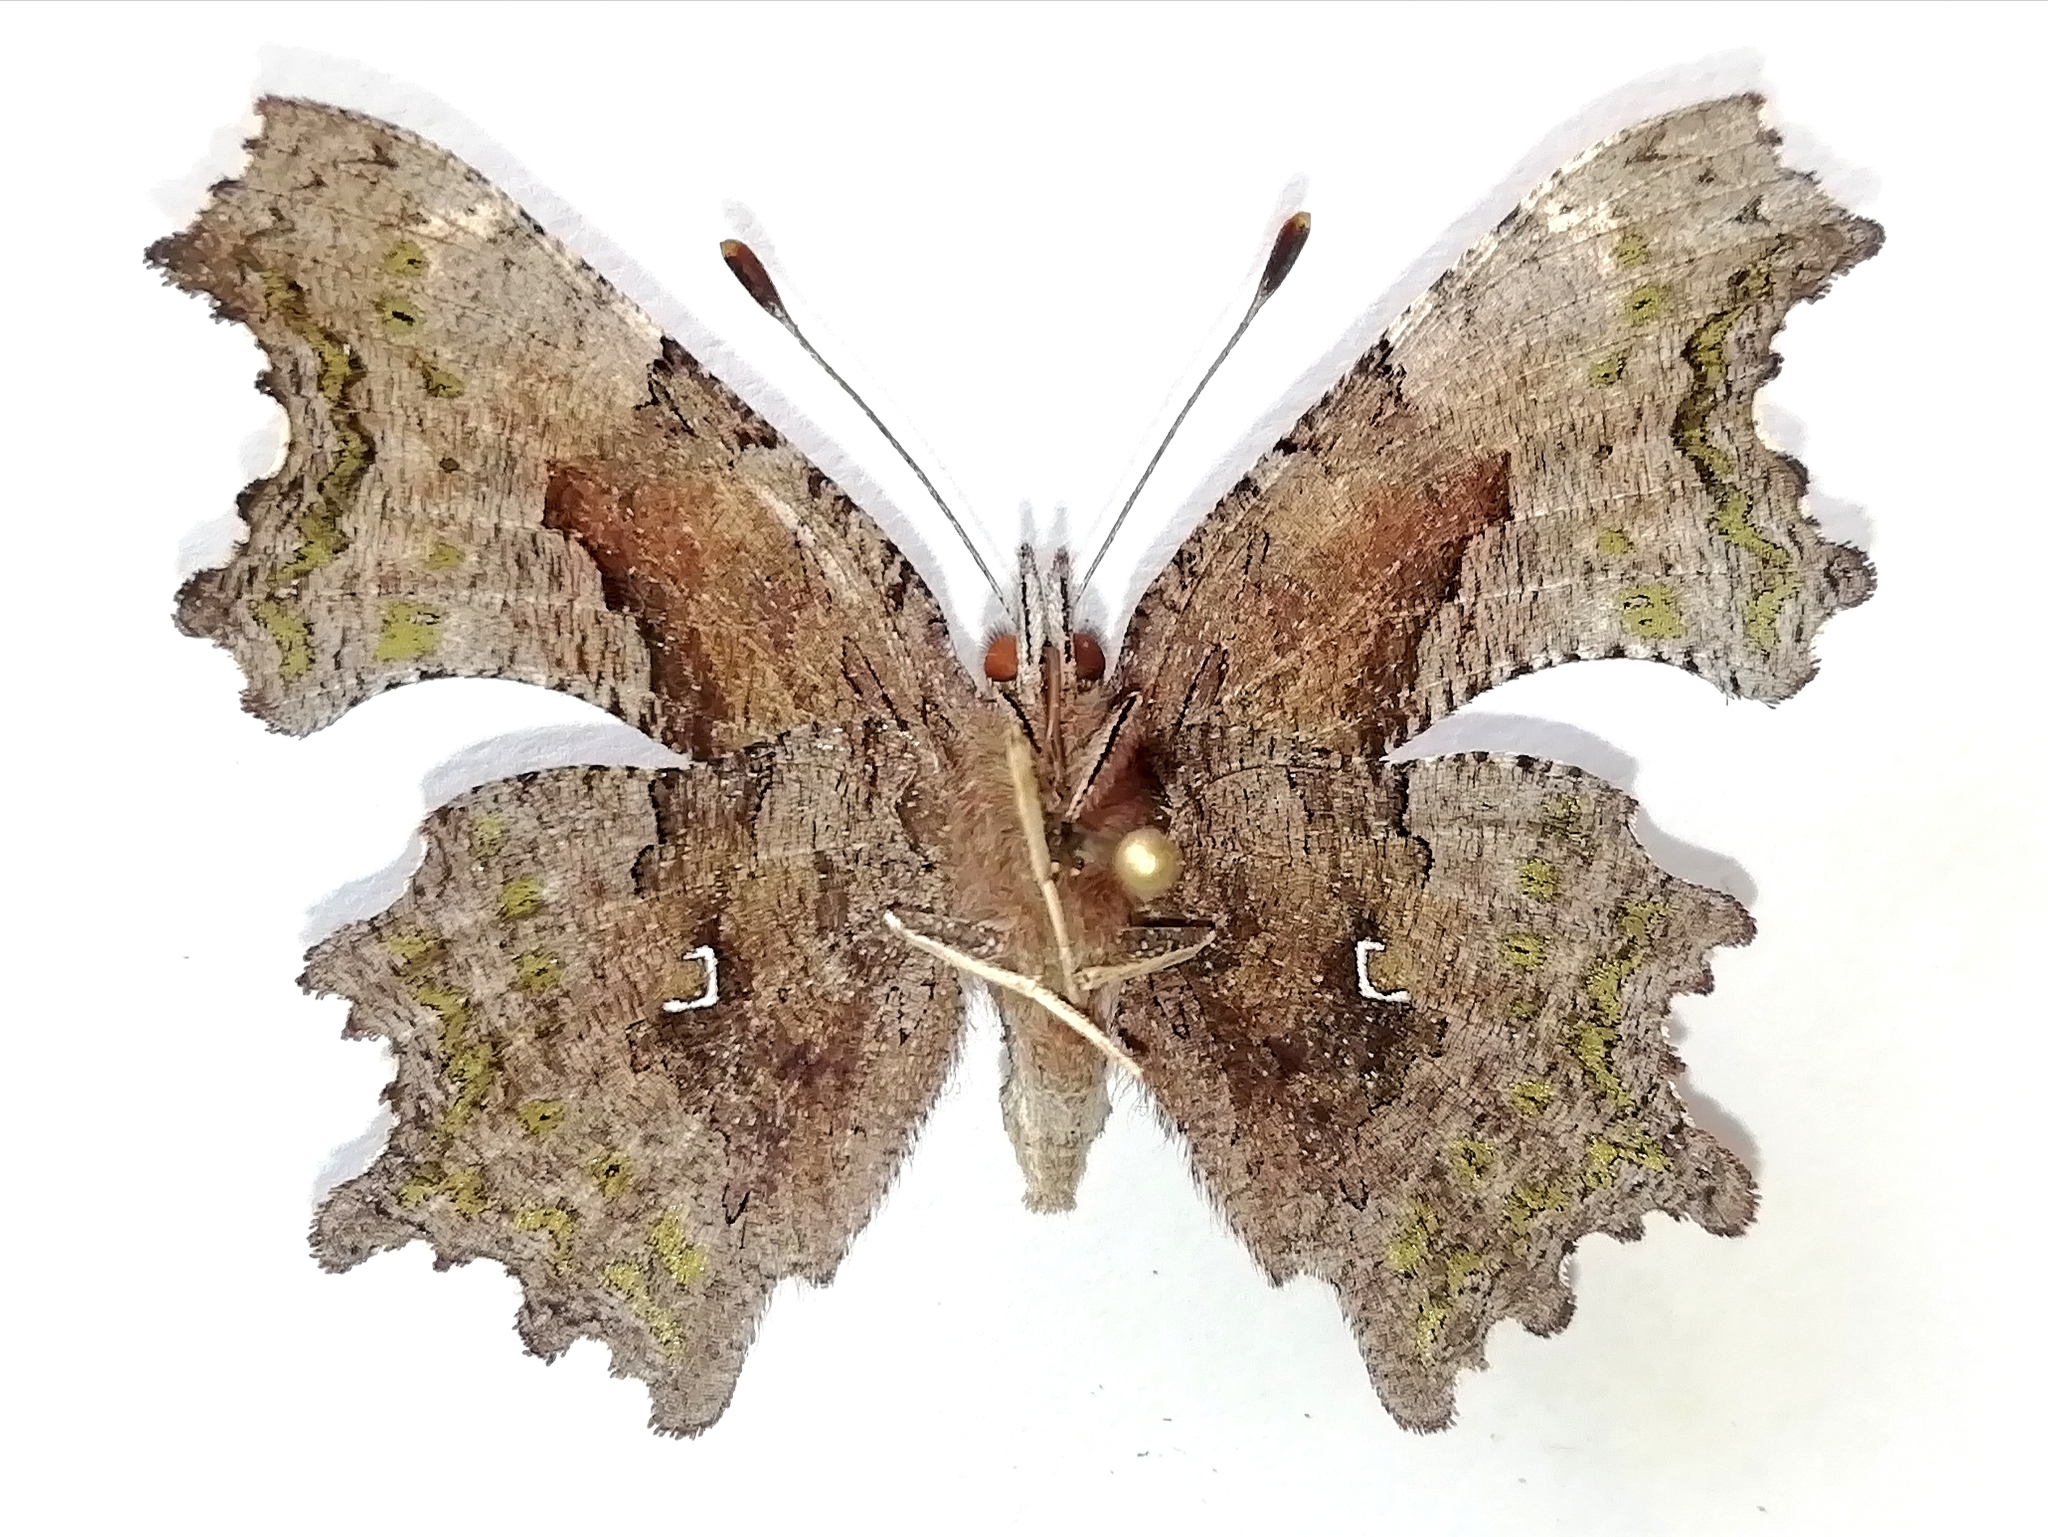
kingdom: Animalia
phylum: Arthropoda
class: Insecta
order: Lepidoptera
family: Nymphalidae
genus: Polygonia
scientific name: Polygonia c-album
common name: Comma
